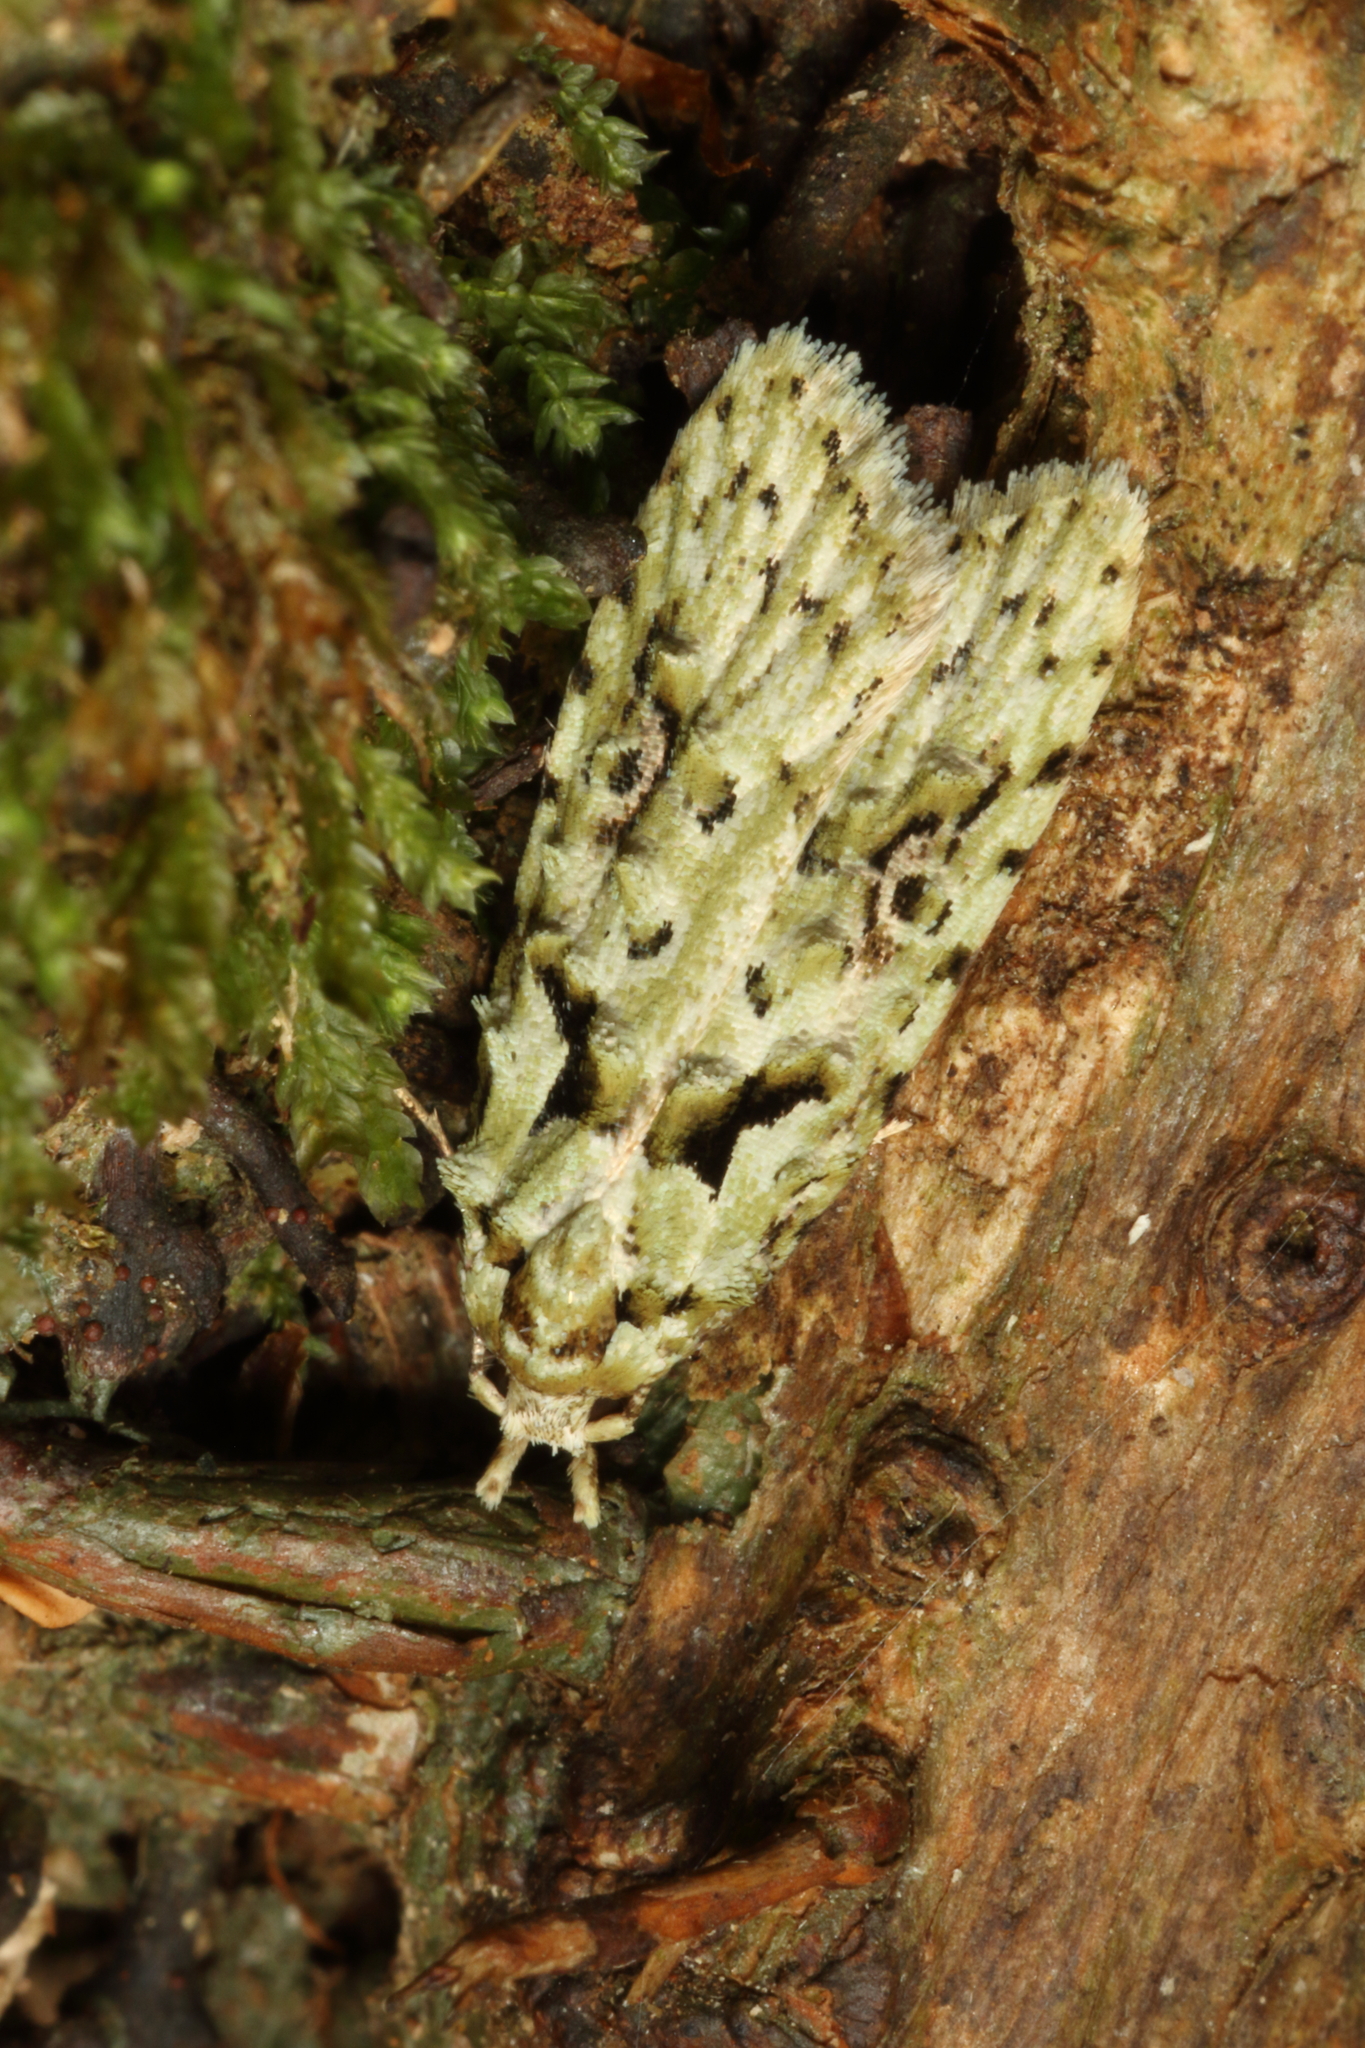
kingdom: Animalia
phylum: Arthropoda
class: Insecta
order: Lepidoptera
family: Carposinidae
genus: Carposina
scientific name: Carposina Heterocrossa eriphylla
